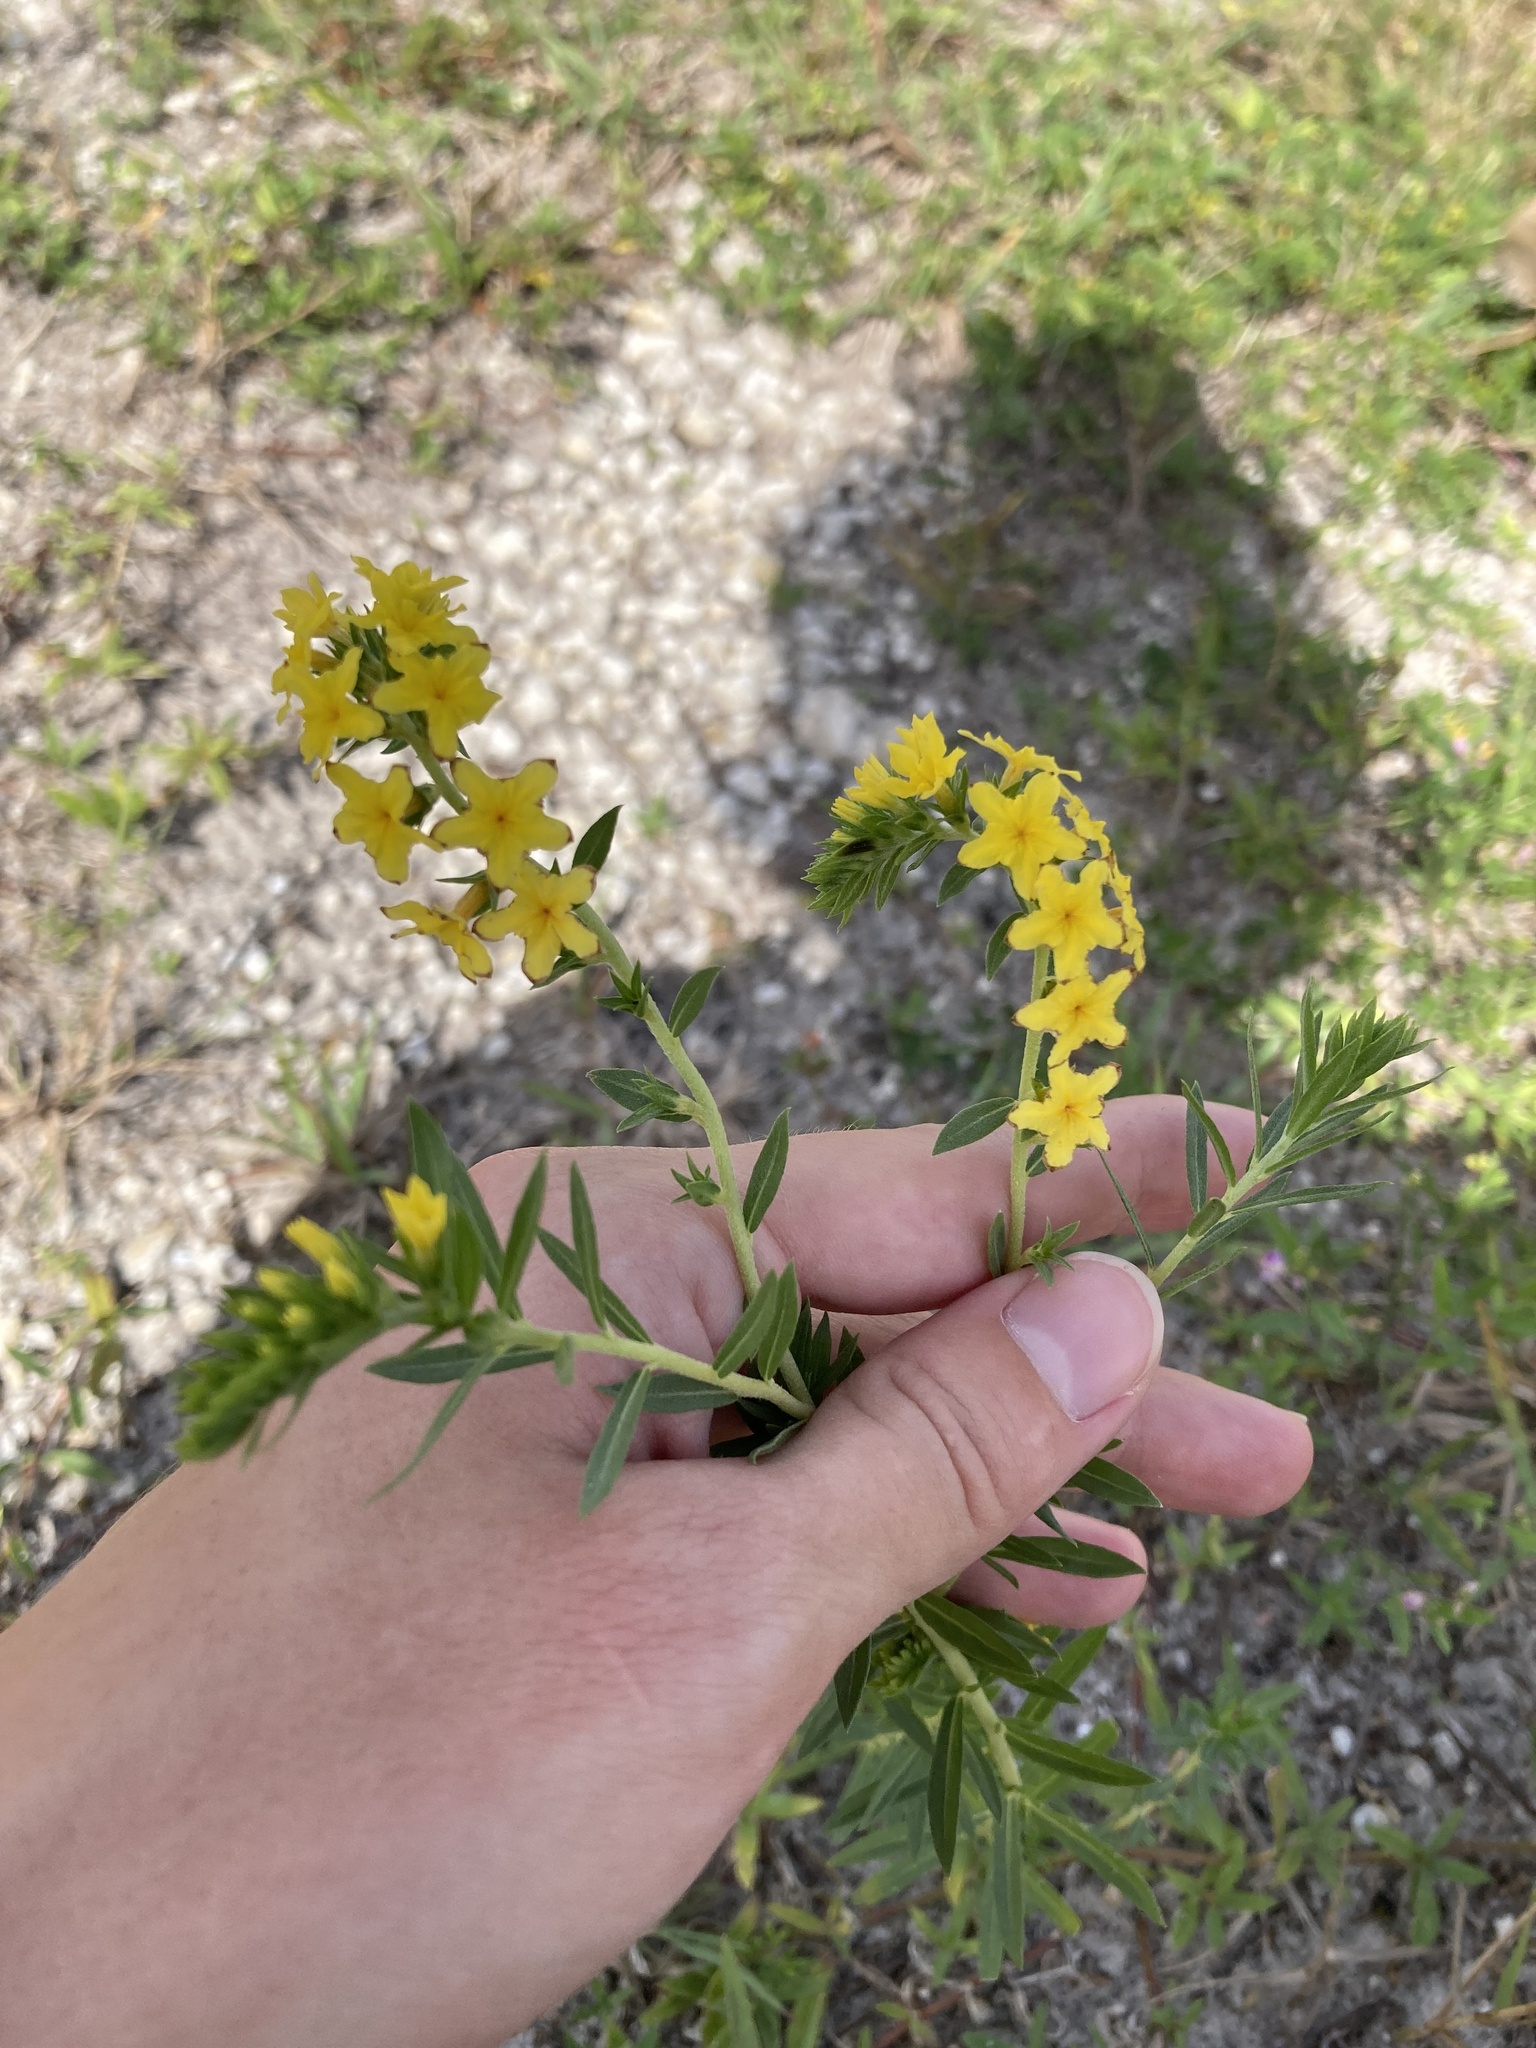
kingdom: Plantae
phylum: Tracheophyta
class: Magnoliopsida
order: Boraginales
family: Heliotropiaceae
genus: Euploca
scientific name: Euploca polyphylla
